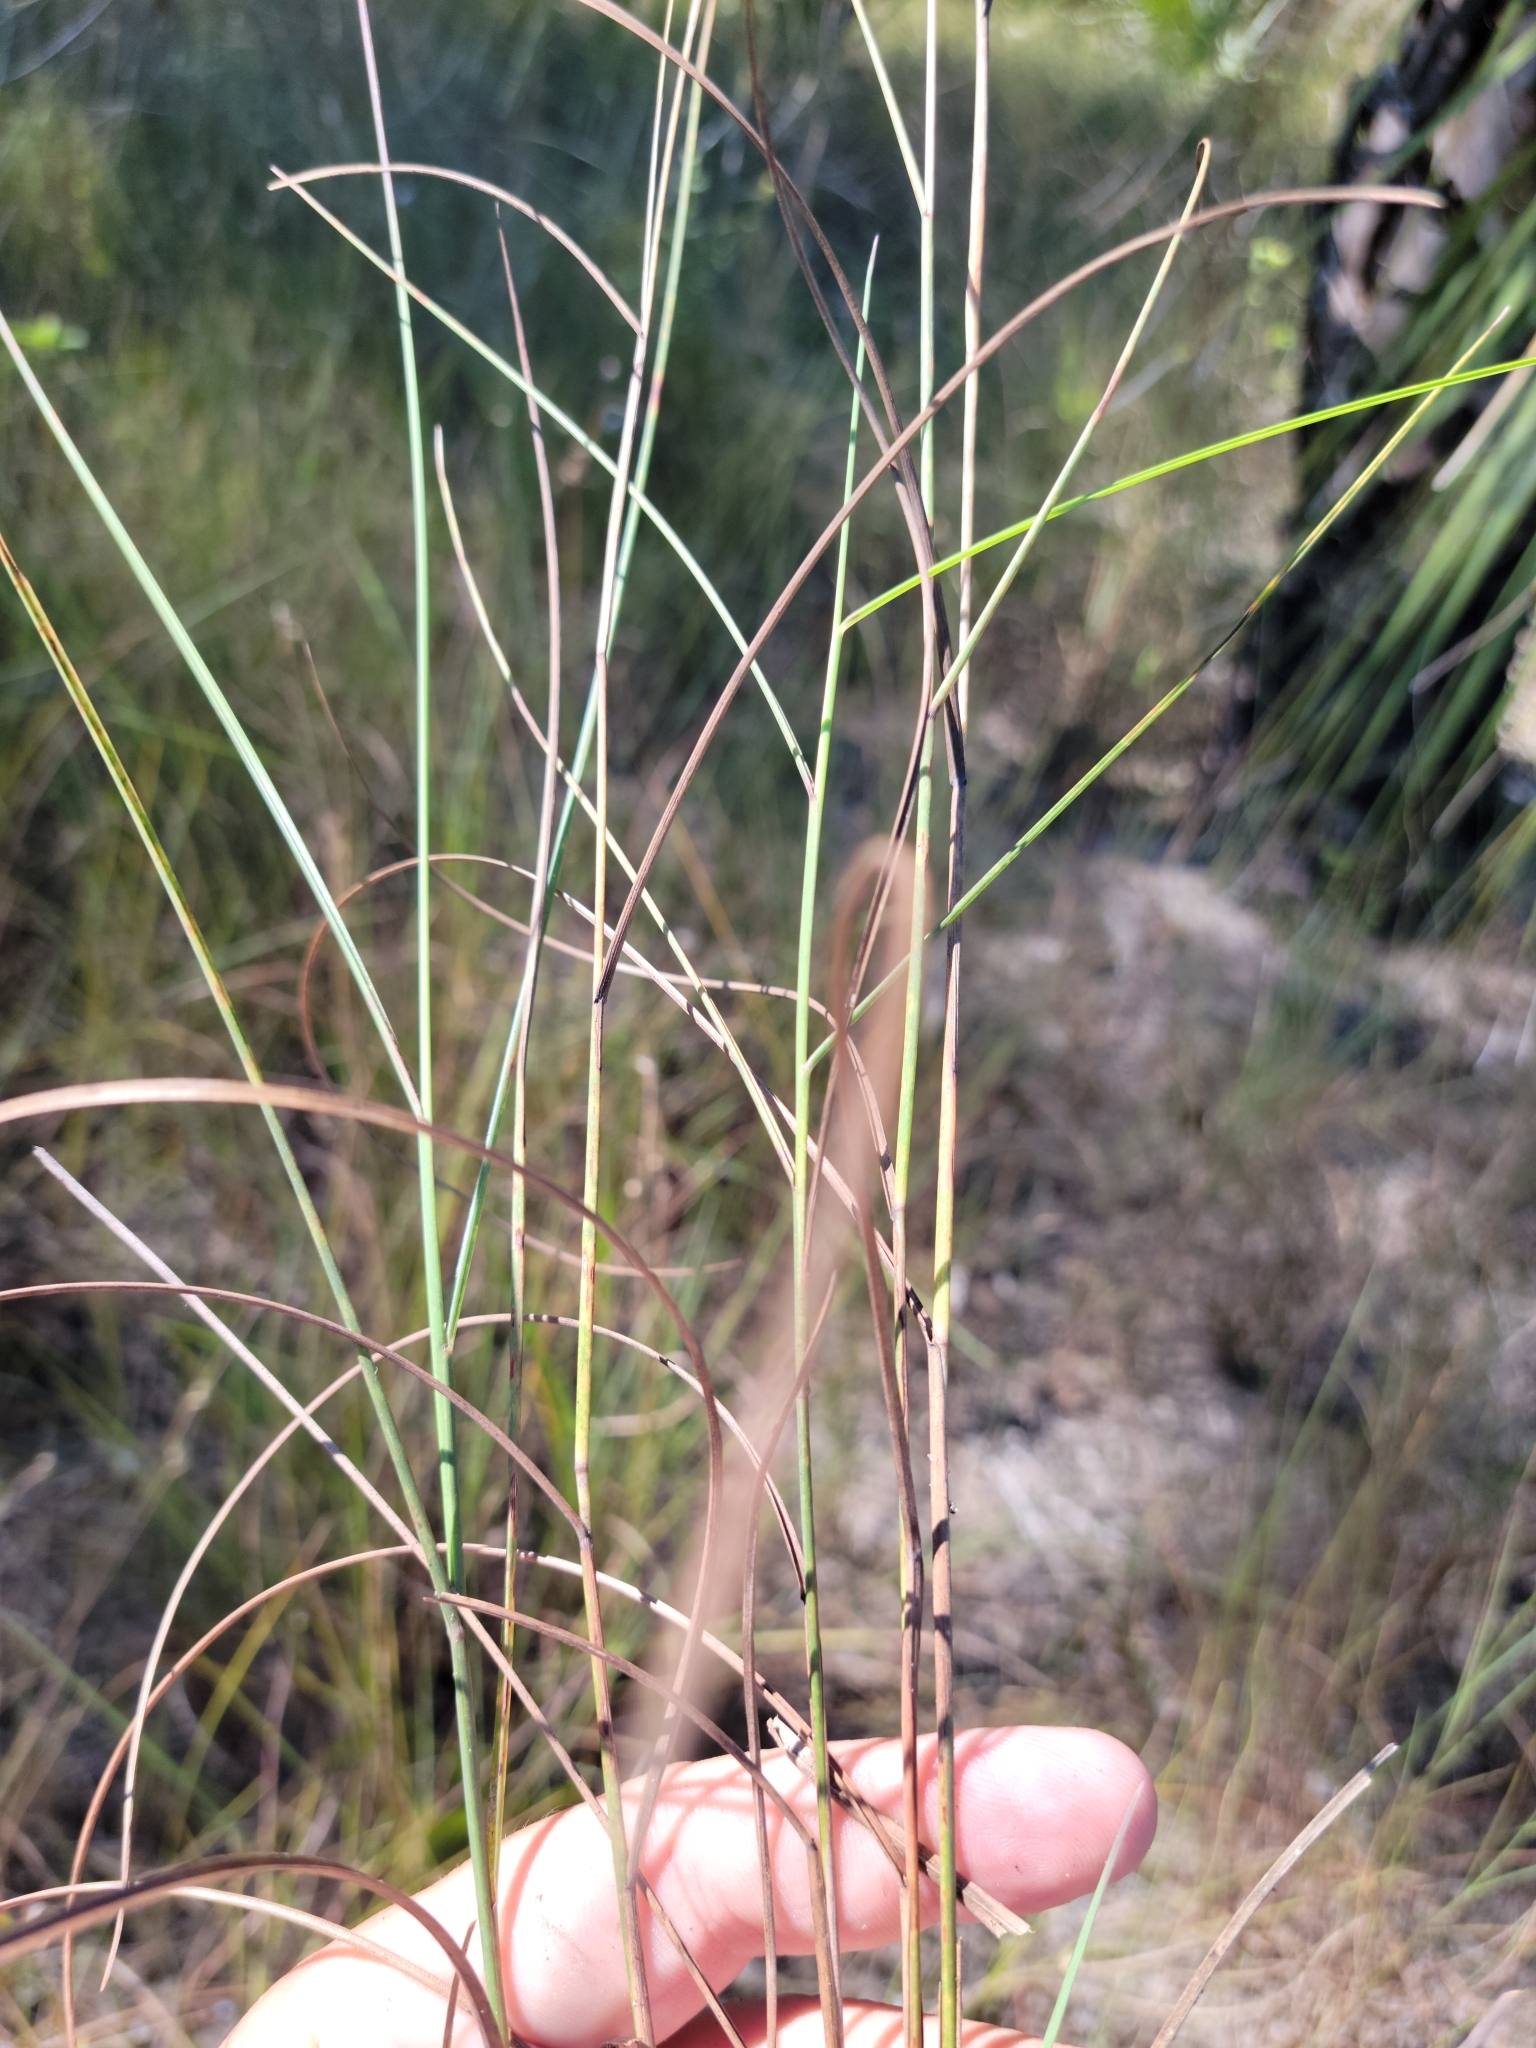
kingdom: Plantae
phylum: Tracheophyta
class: Liliopsida
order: Poales
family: Poaceae
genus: Schizachyrium
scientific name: Schizachyrium rhizomatum
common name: Florida little bluestem
